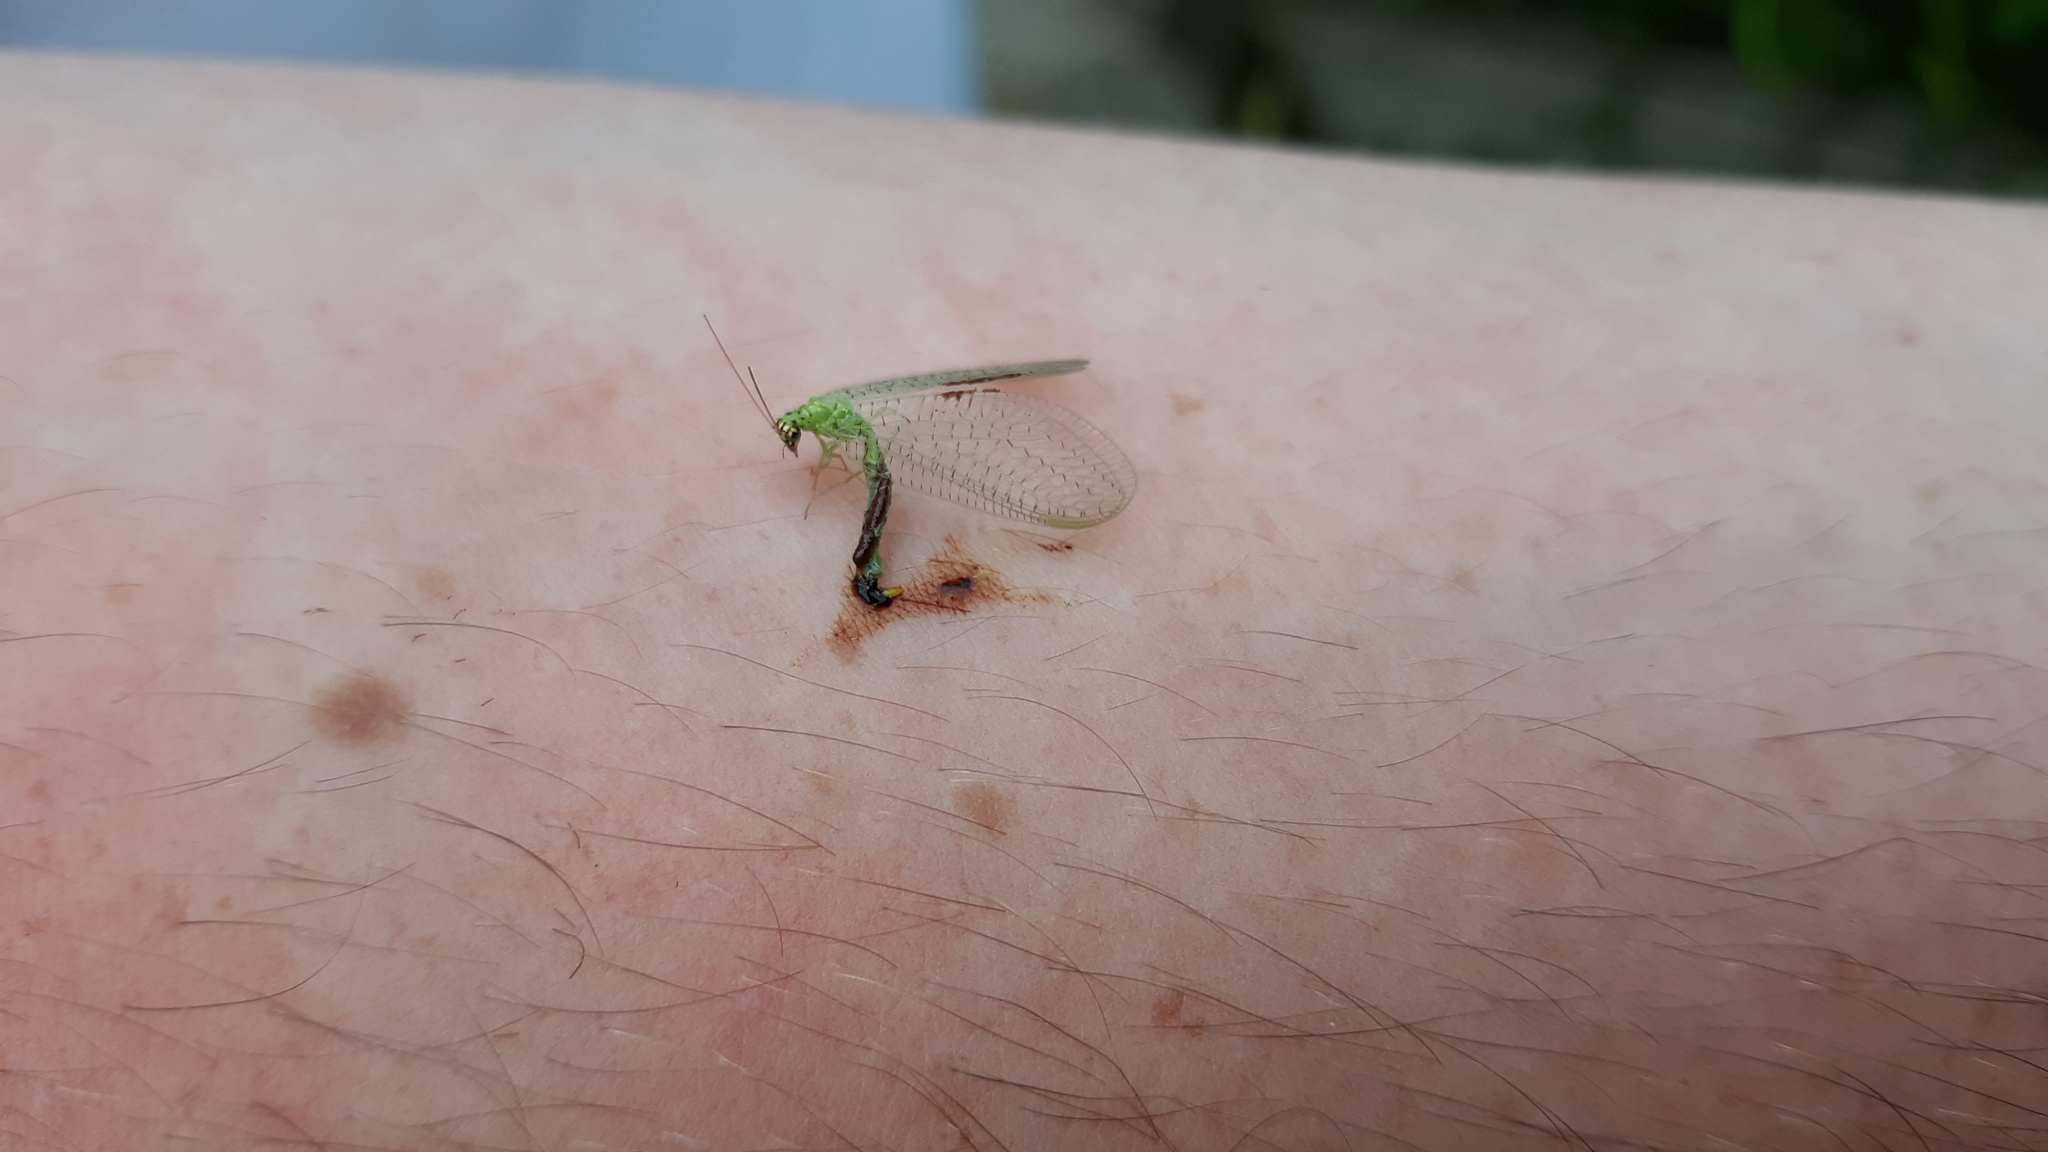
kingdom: Animalia
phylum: Arthropoda
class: Insecta
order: Neuroptera
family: Chrysopidae
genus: Chrysopa
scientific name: Chrysopa oculata
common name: Golden-eyed lacewing
